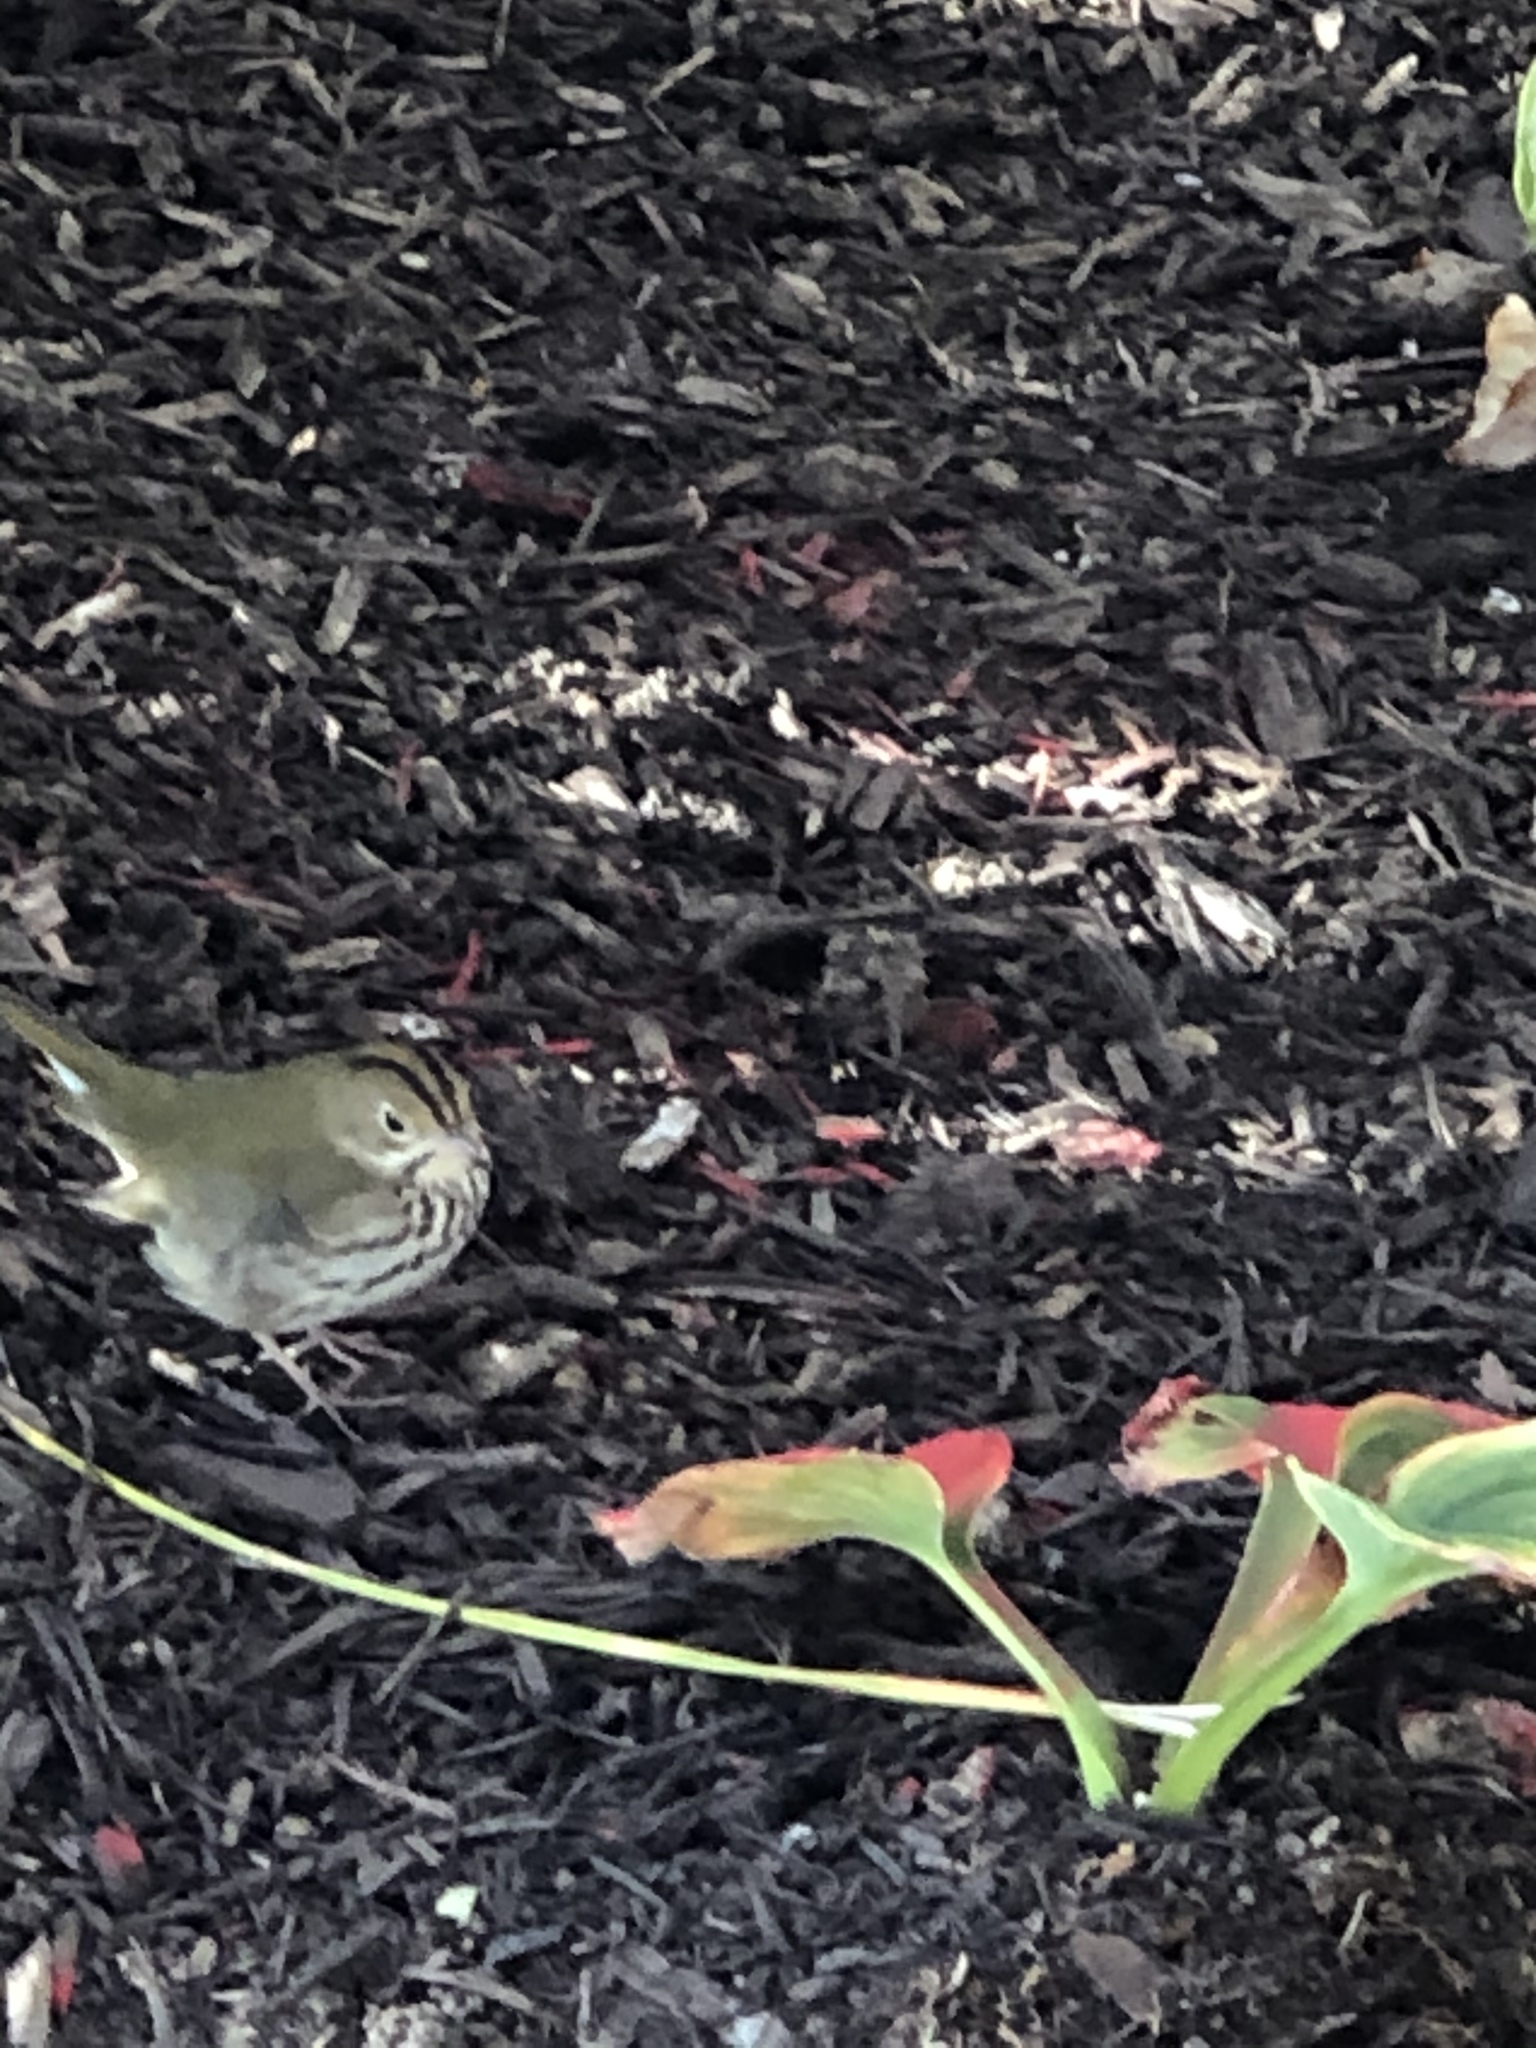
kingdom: Animalia
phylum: Chordata
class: Aves
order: Passeriformes
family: Parulidae
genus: Seiurus
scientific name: Seiurus aurocapilla
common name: Ovenbird
